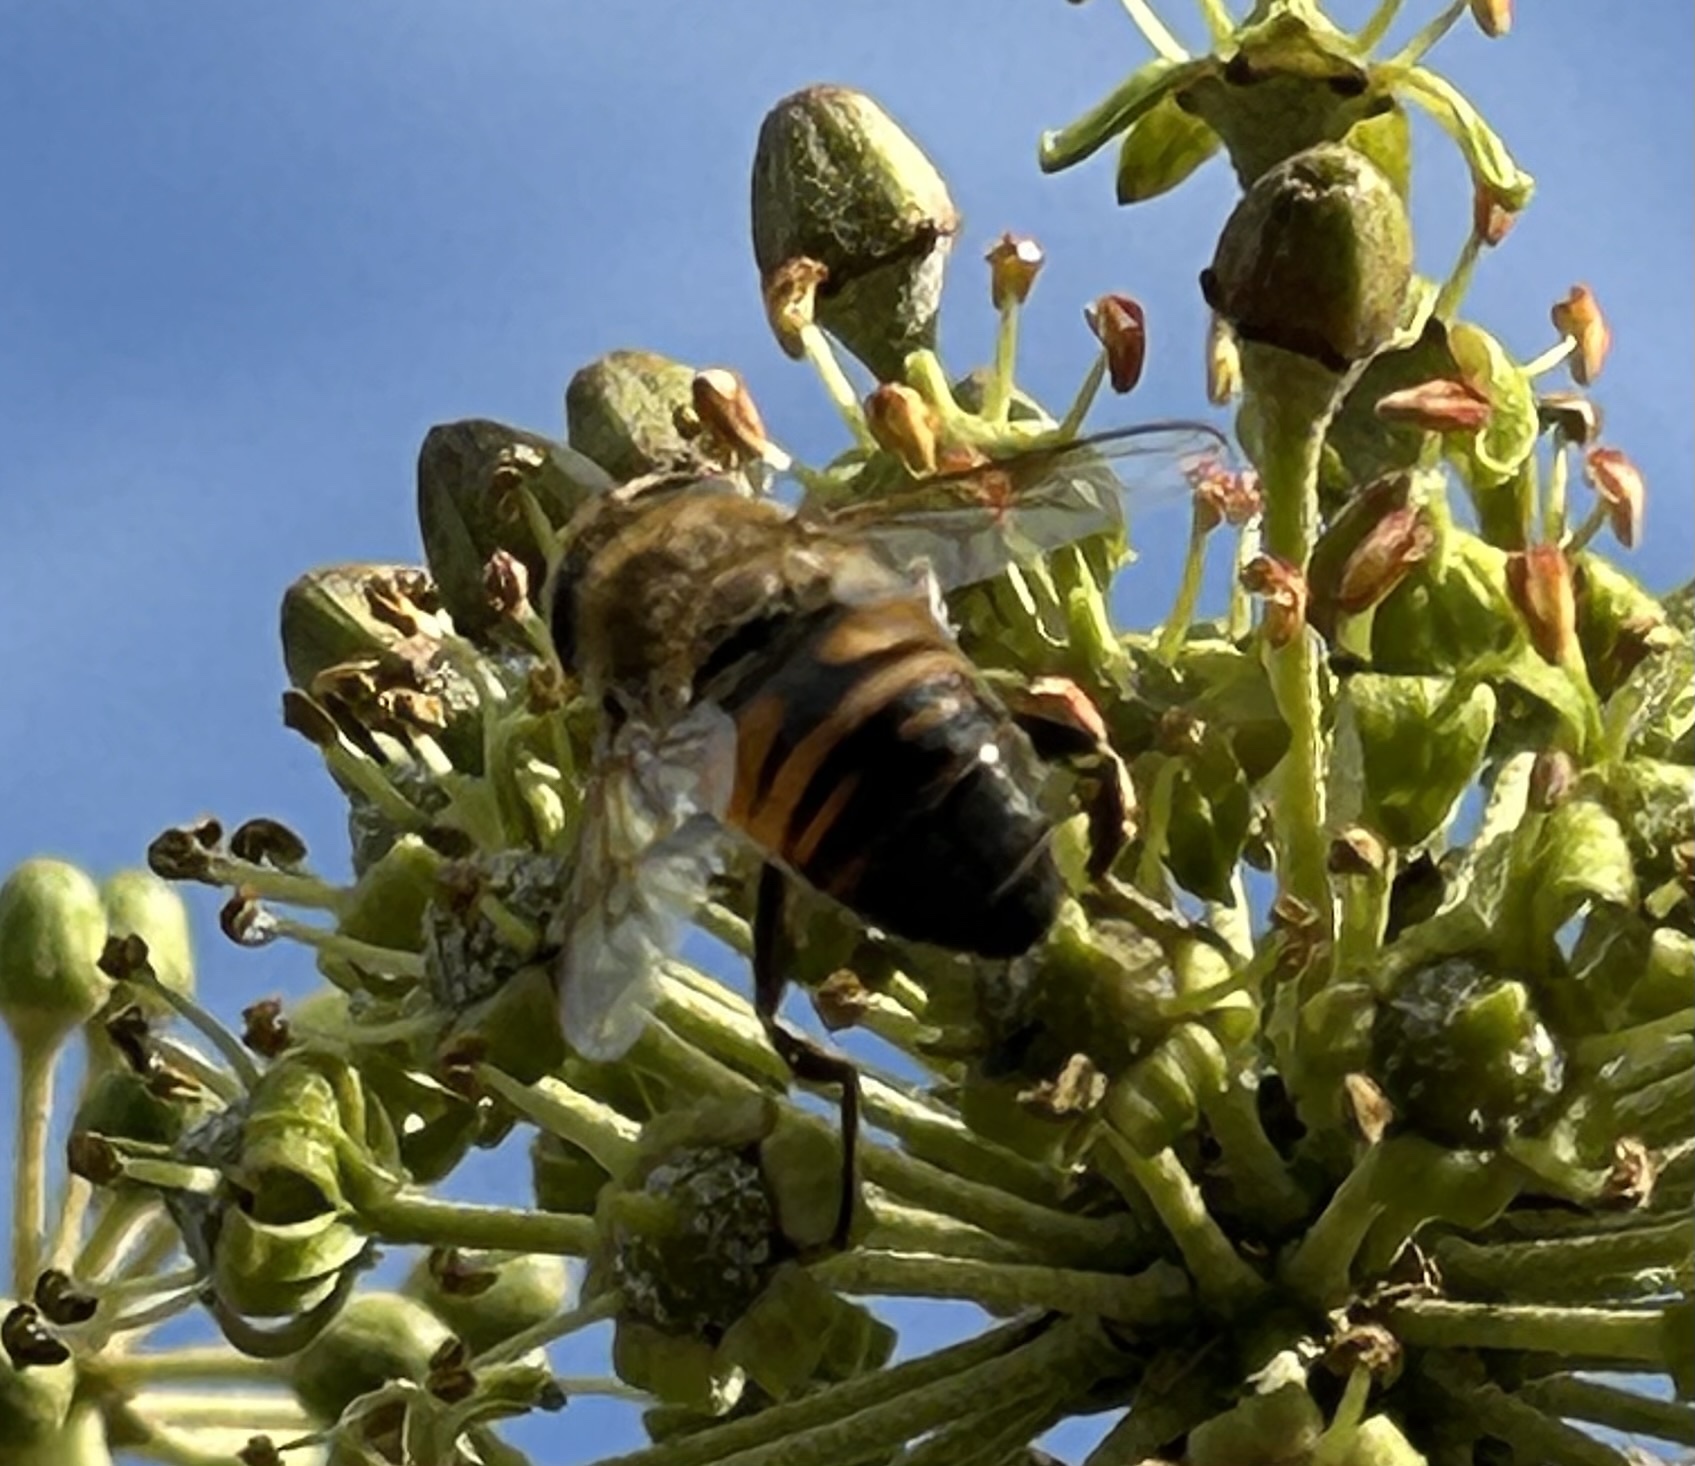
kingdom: Animalia
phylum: Arthropoda
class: Insecta
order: Diptera
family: Syrphidae
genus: Eristalis
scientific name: Eristalis tenax
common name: Drone fly
